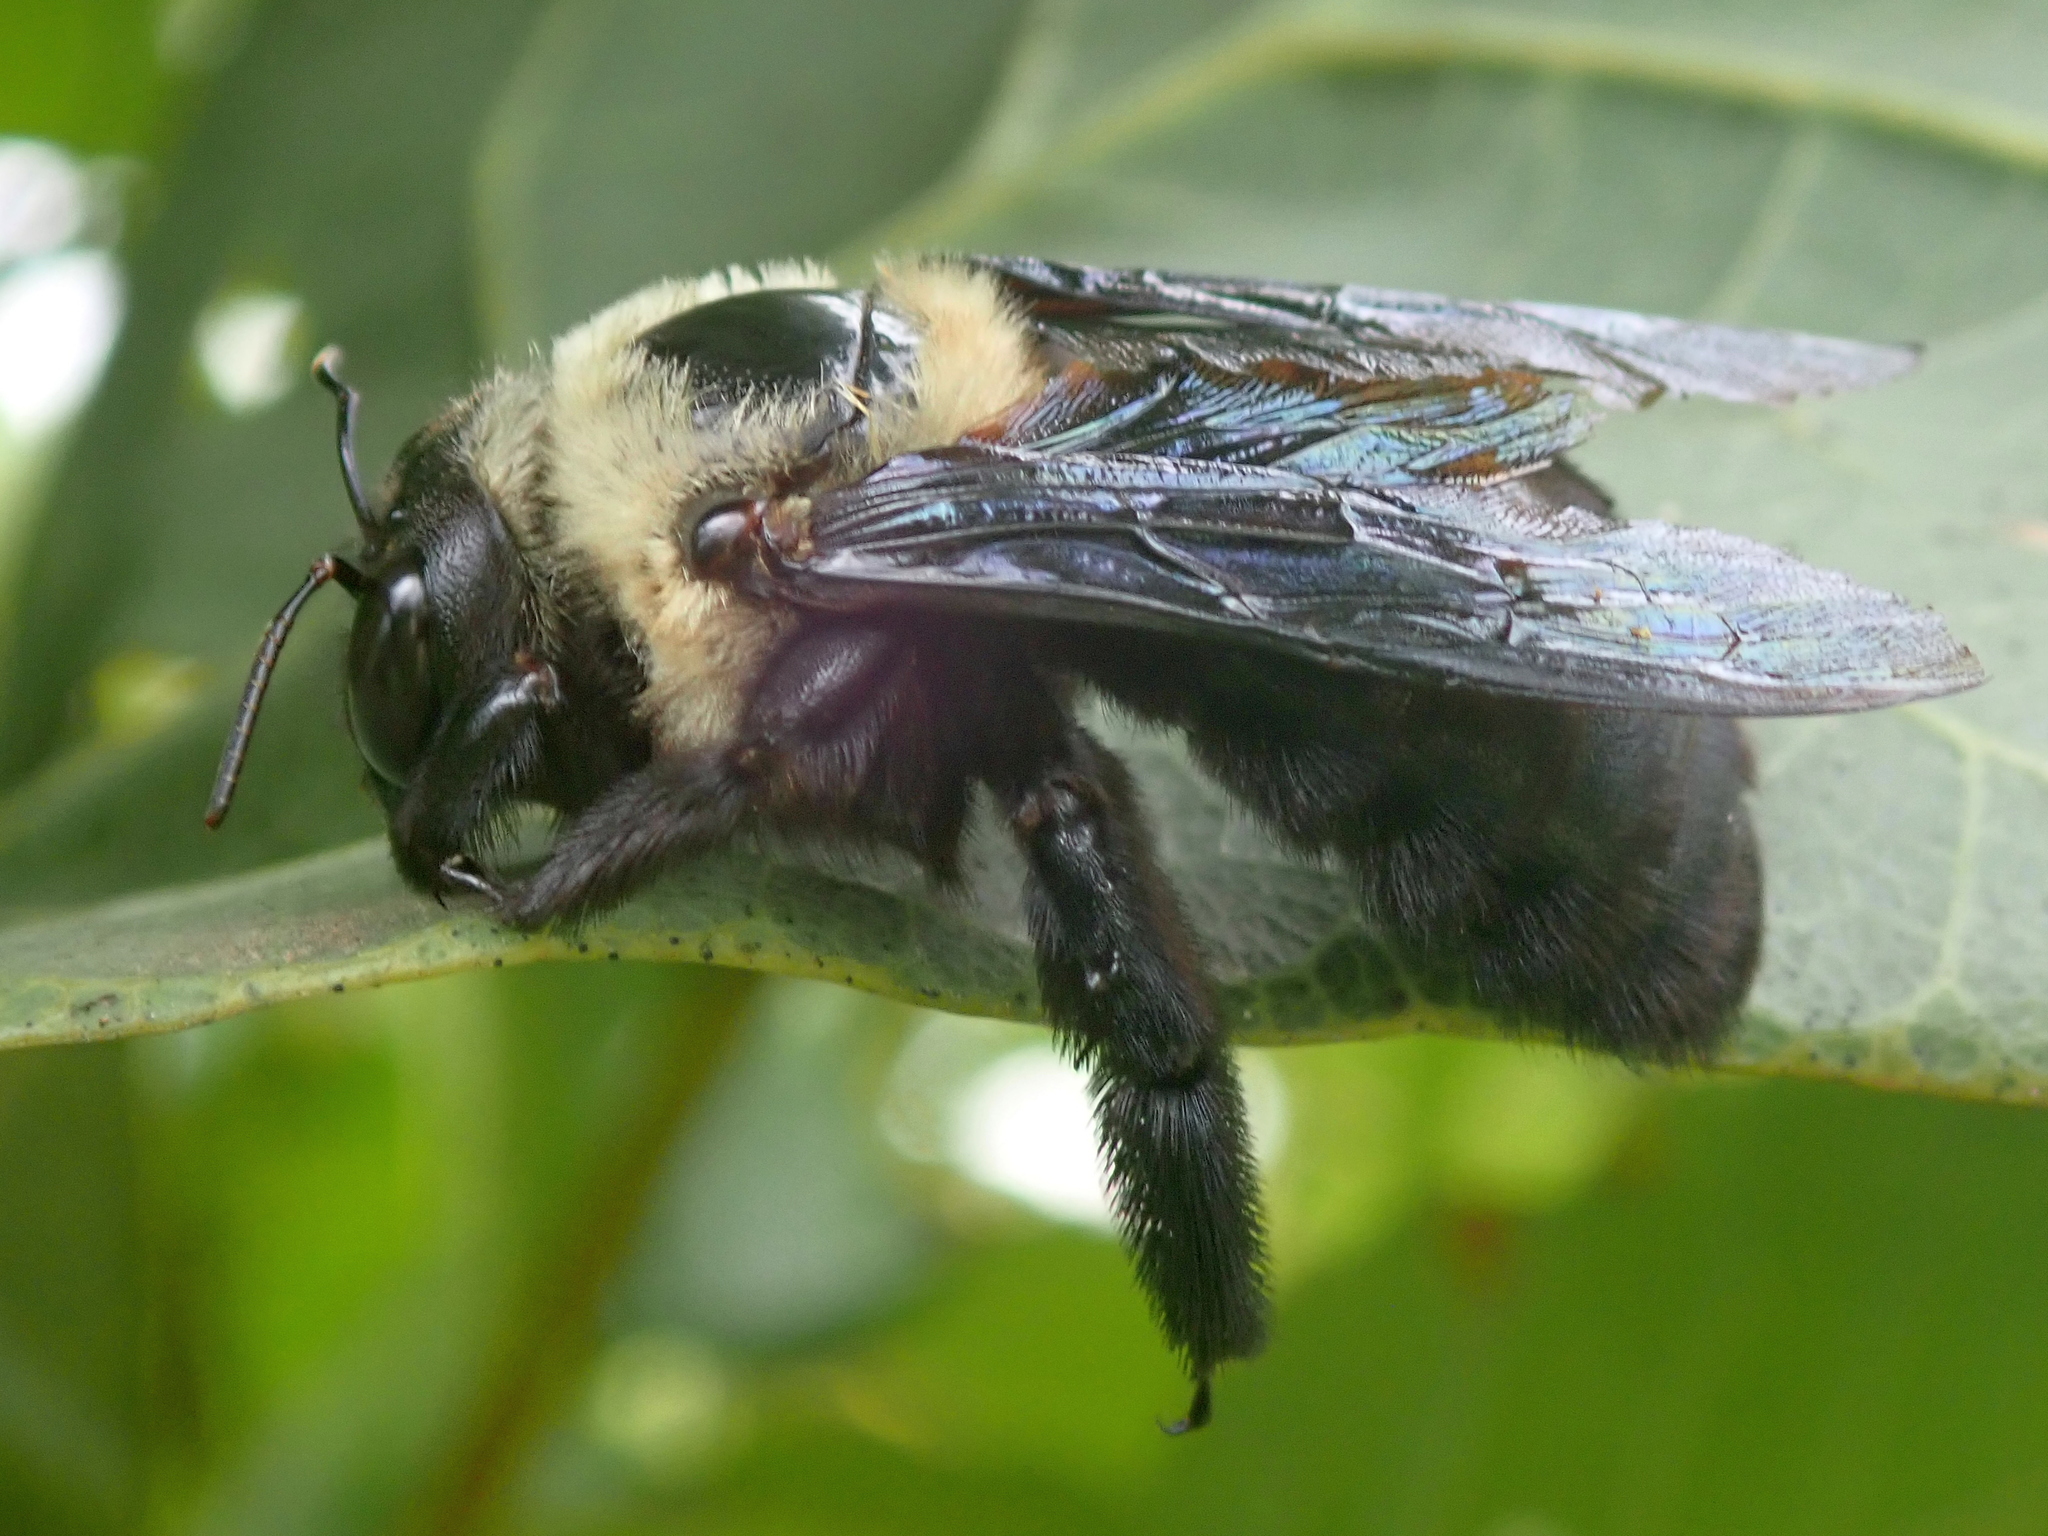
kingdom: Animalia
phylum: Arthropoda
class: Insecta
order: Hymenoptera
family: Apidae
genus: Xylocopa
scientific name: Xylocopa grisescens
